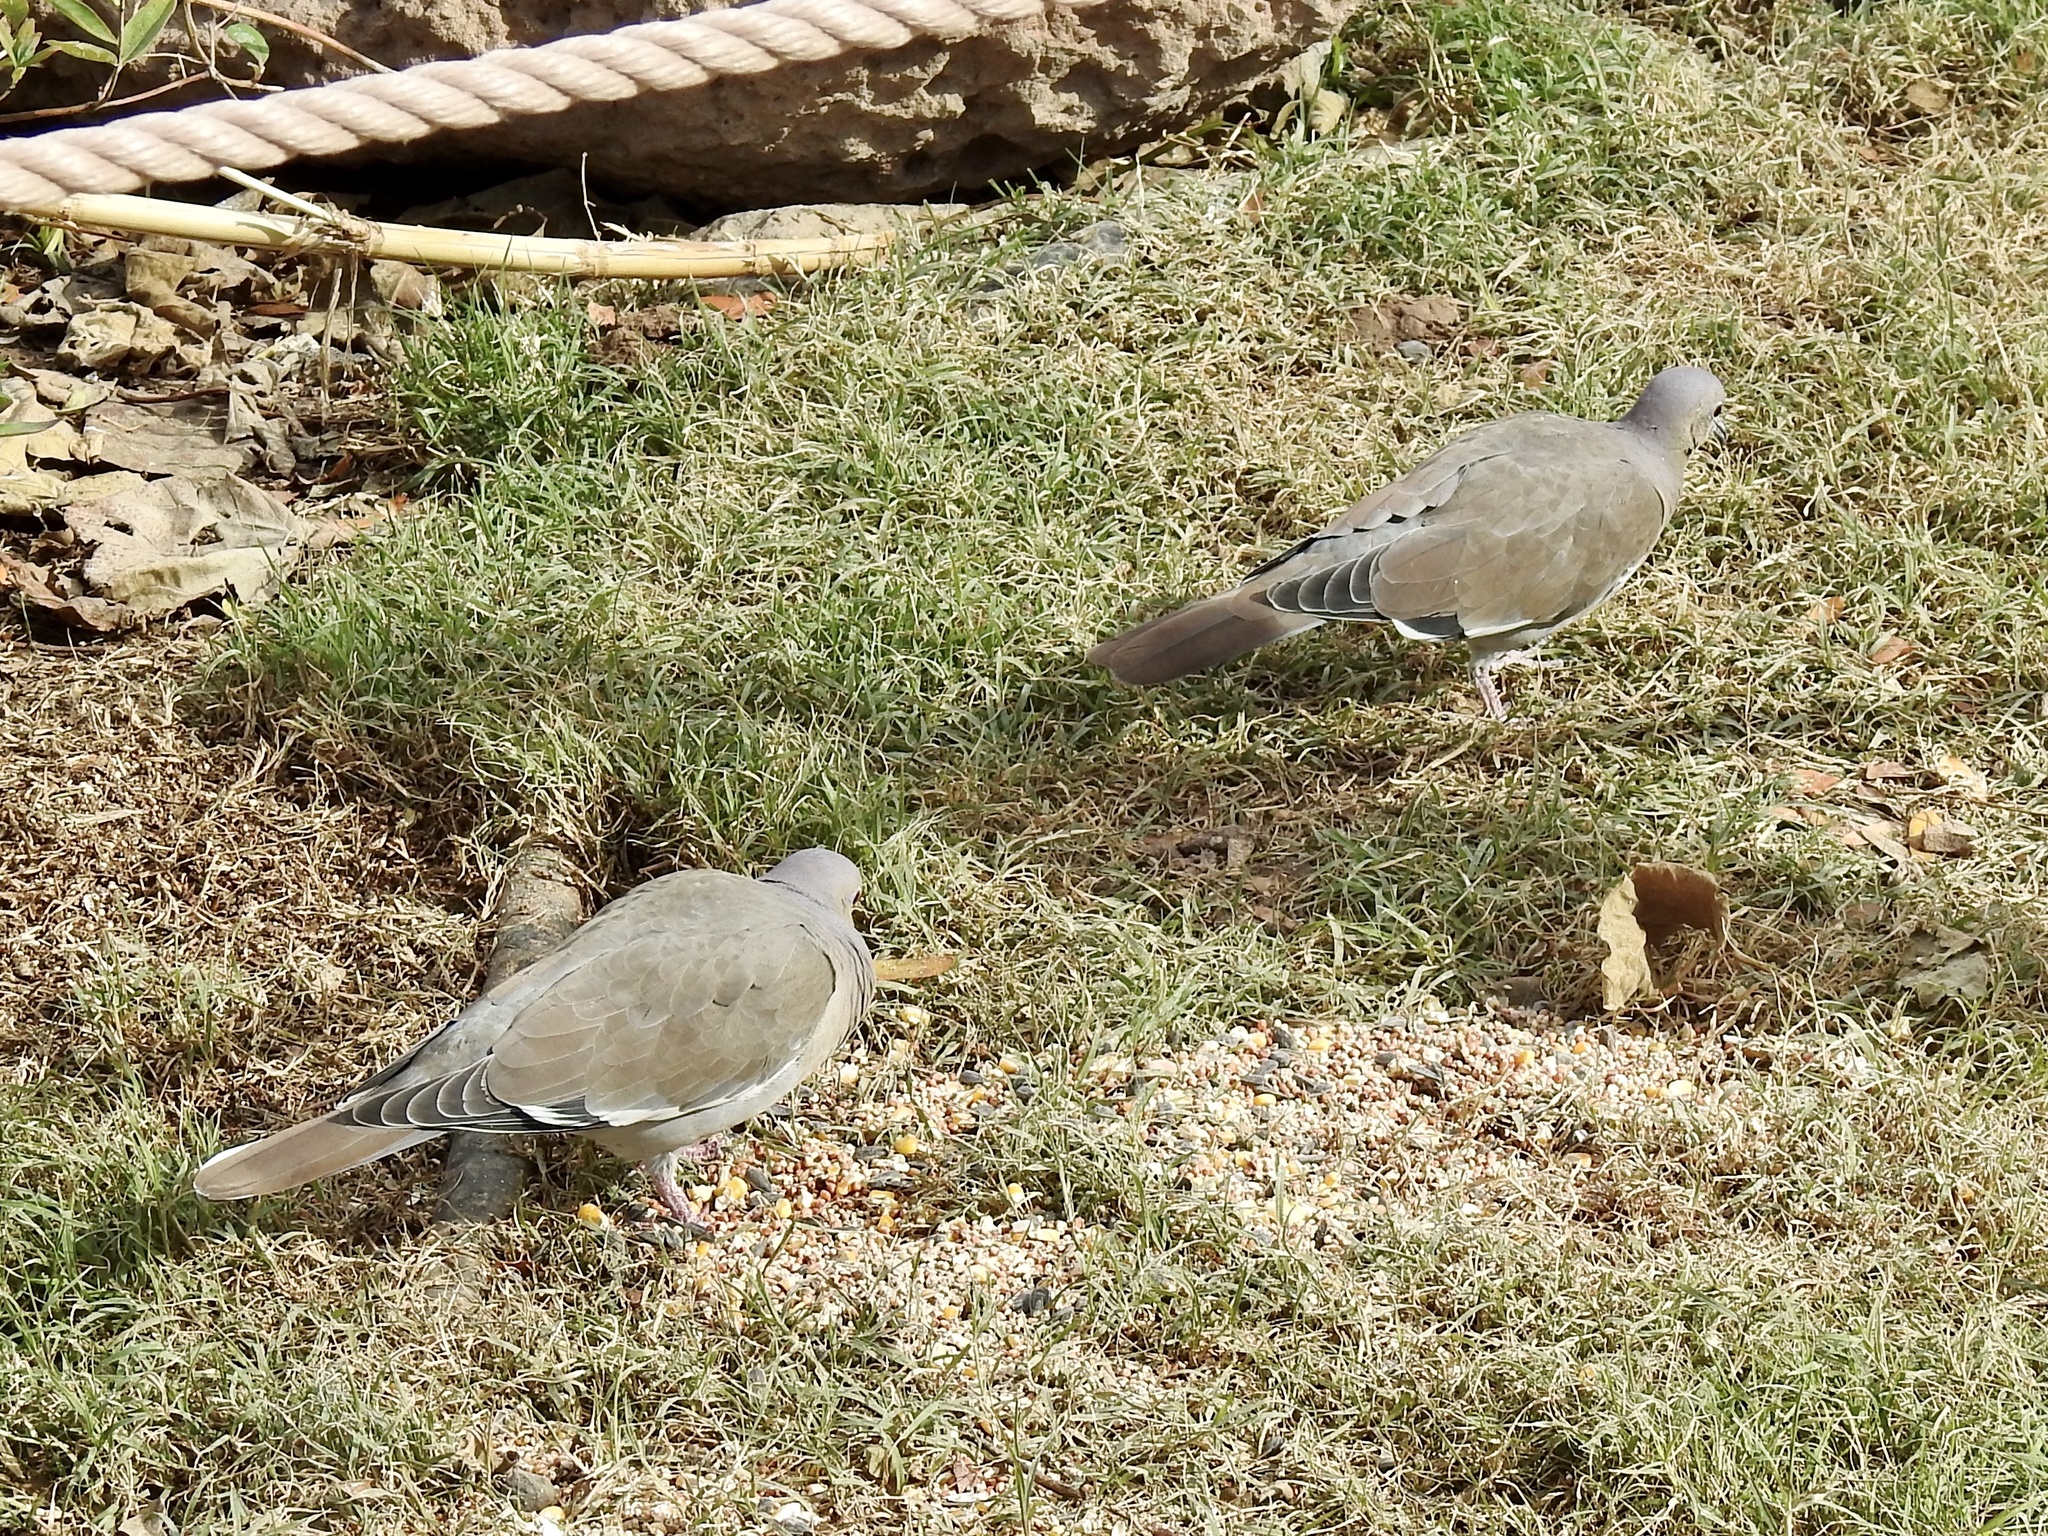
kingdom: Animalia
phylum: Chordata
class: Aves
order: Columbiformes
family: Columbidae
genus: Zenaida
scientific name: Zenaida asiatica
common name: White-winged dove
